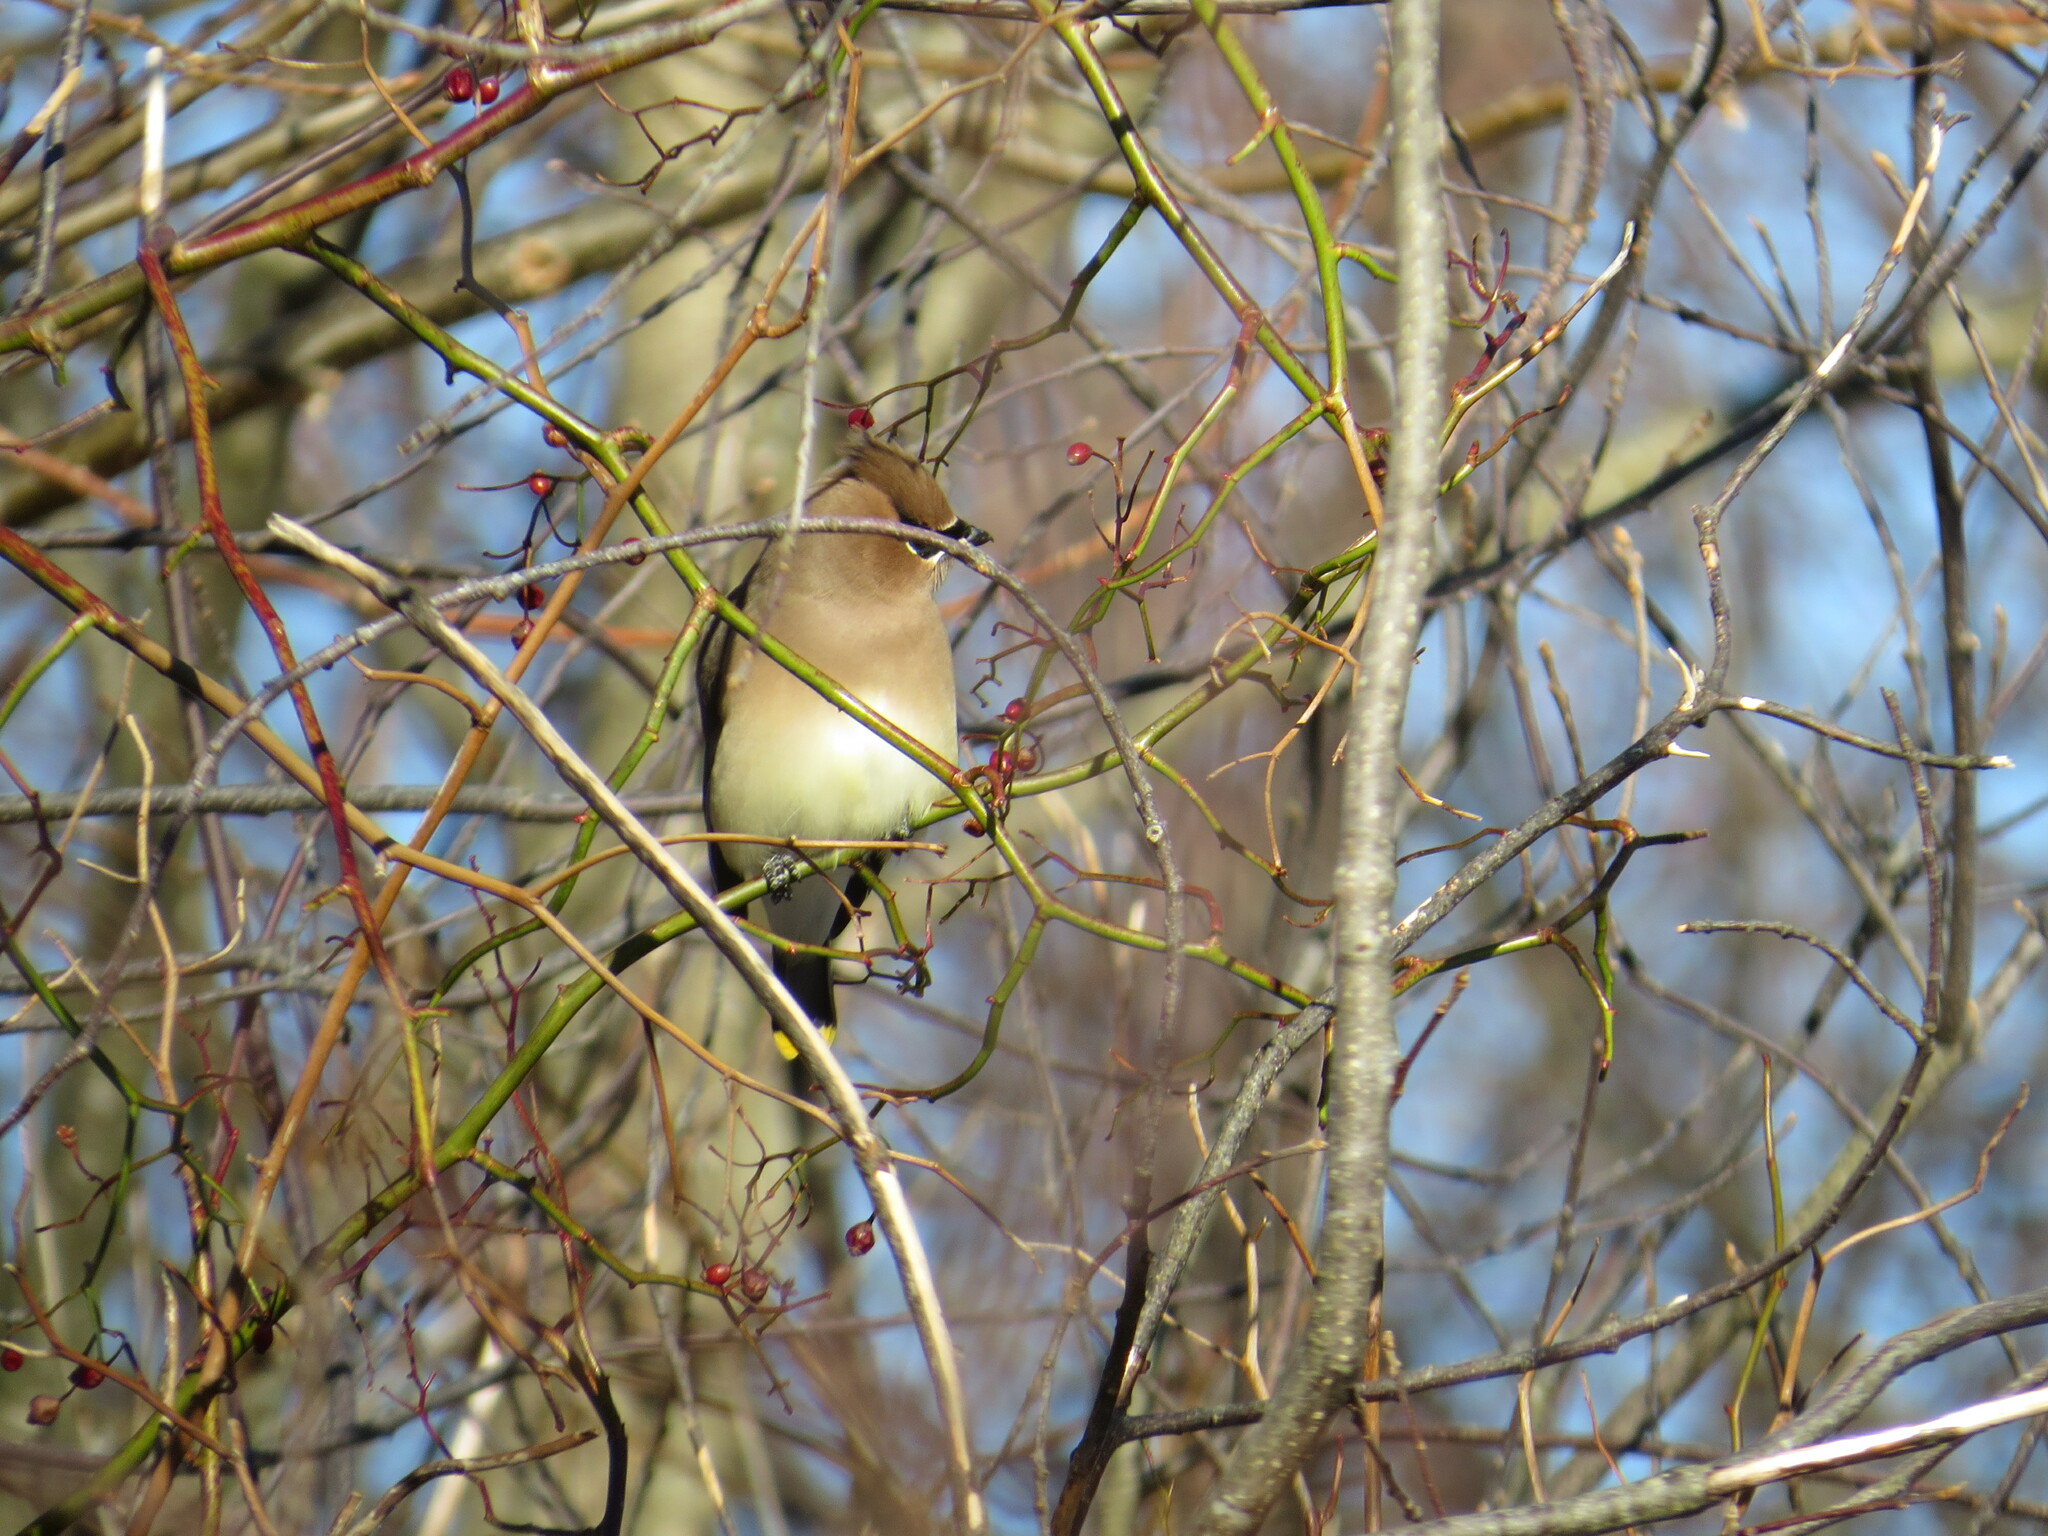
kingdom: Animalia
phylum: Chordata
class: Aves
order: Passeriformes
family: Bombycillidae
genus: Bombycilla
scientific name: Bombycilla cedrorum
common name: Cedar waxwing
